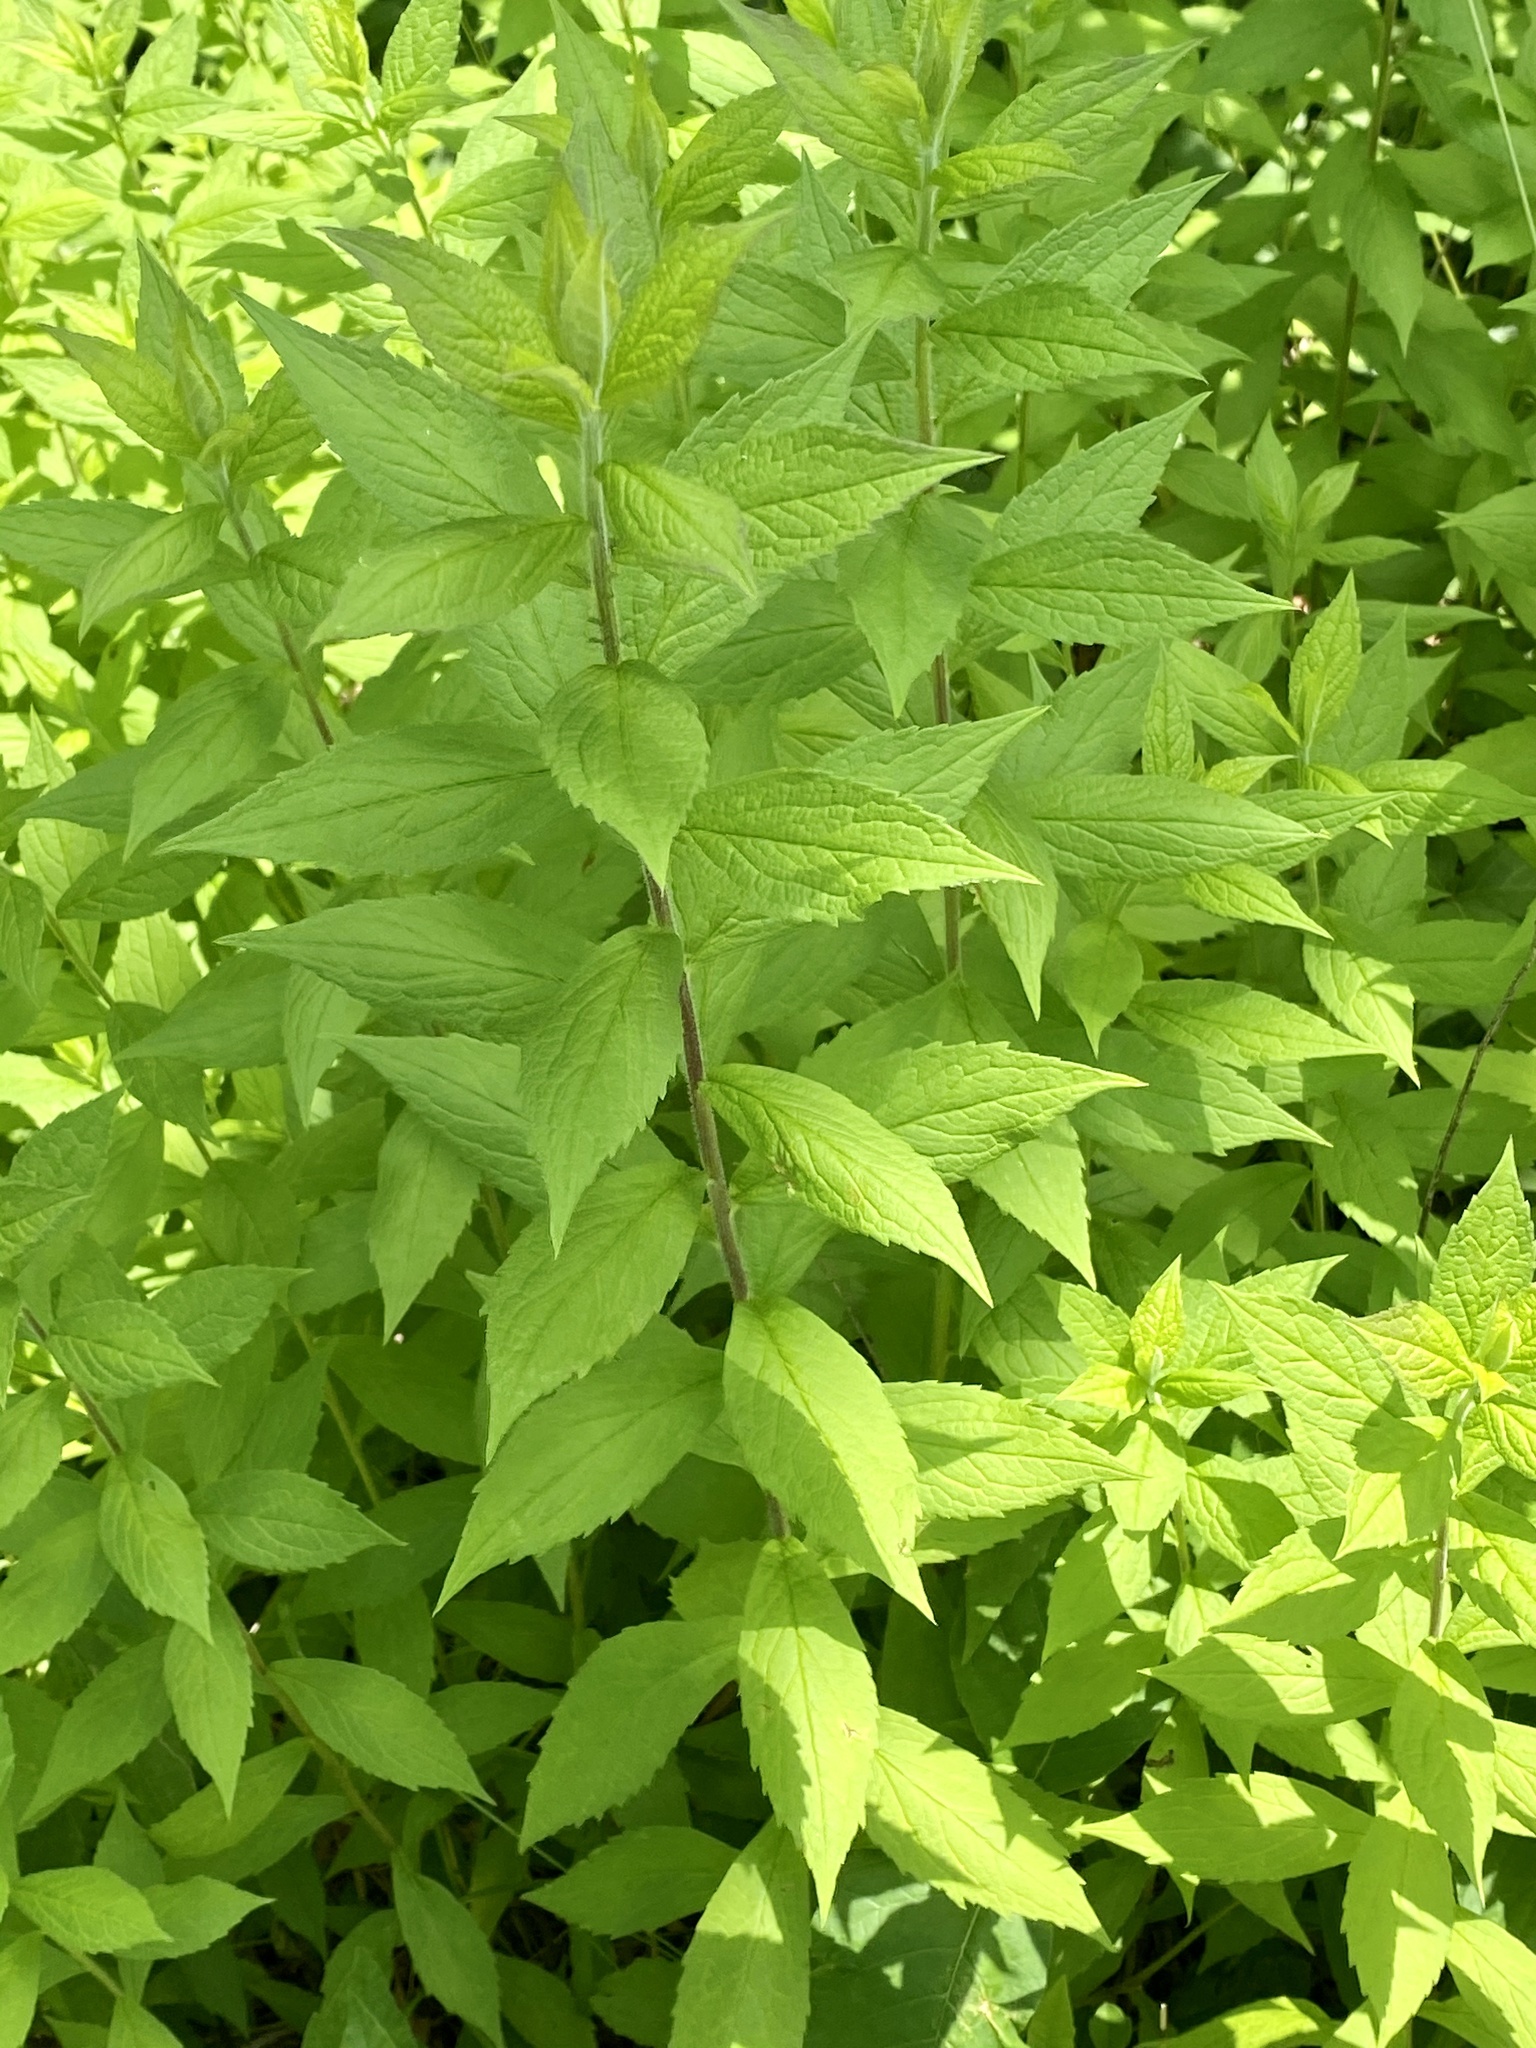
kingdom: Plantae
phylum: Tracheophyta
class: Magnoliopsida
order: Asterales
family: Asteraceae
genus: Solidago
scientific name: Solidago rugosa
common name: Rough-stemmed goldenrod
